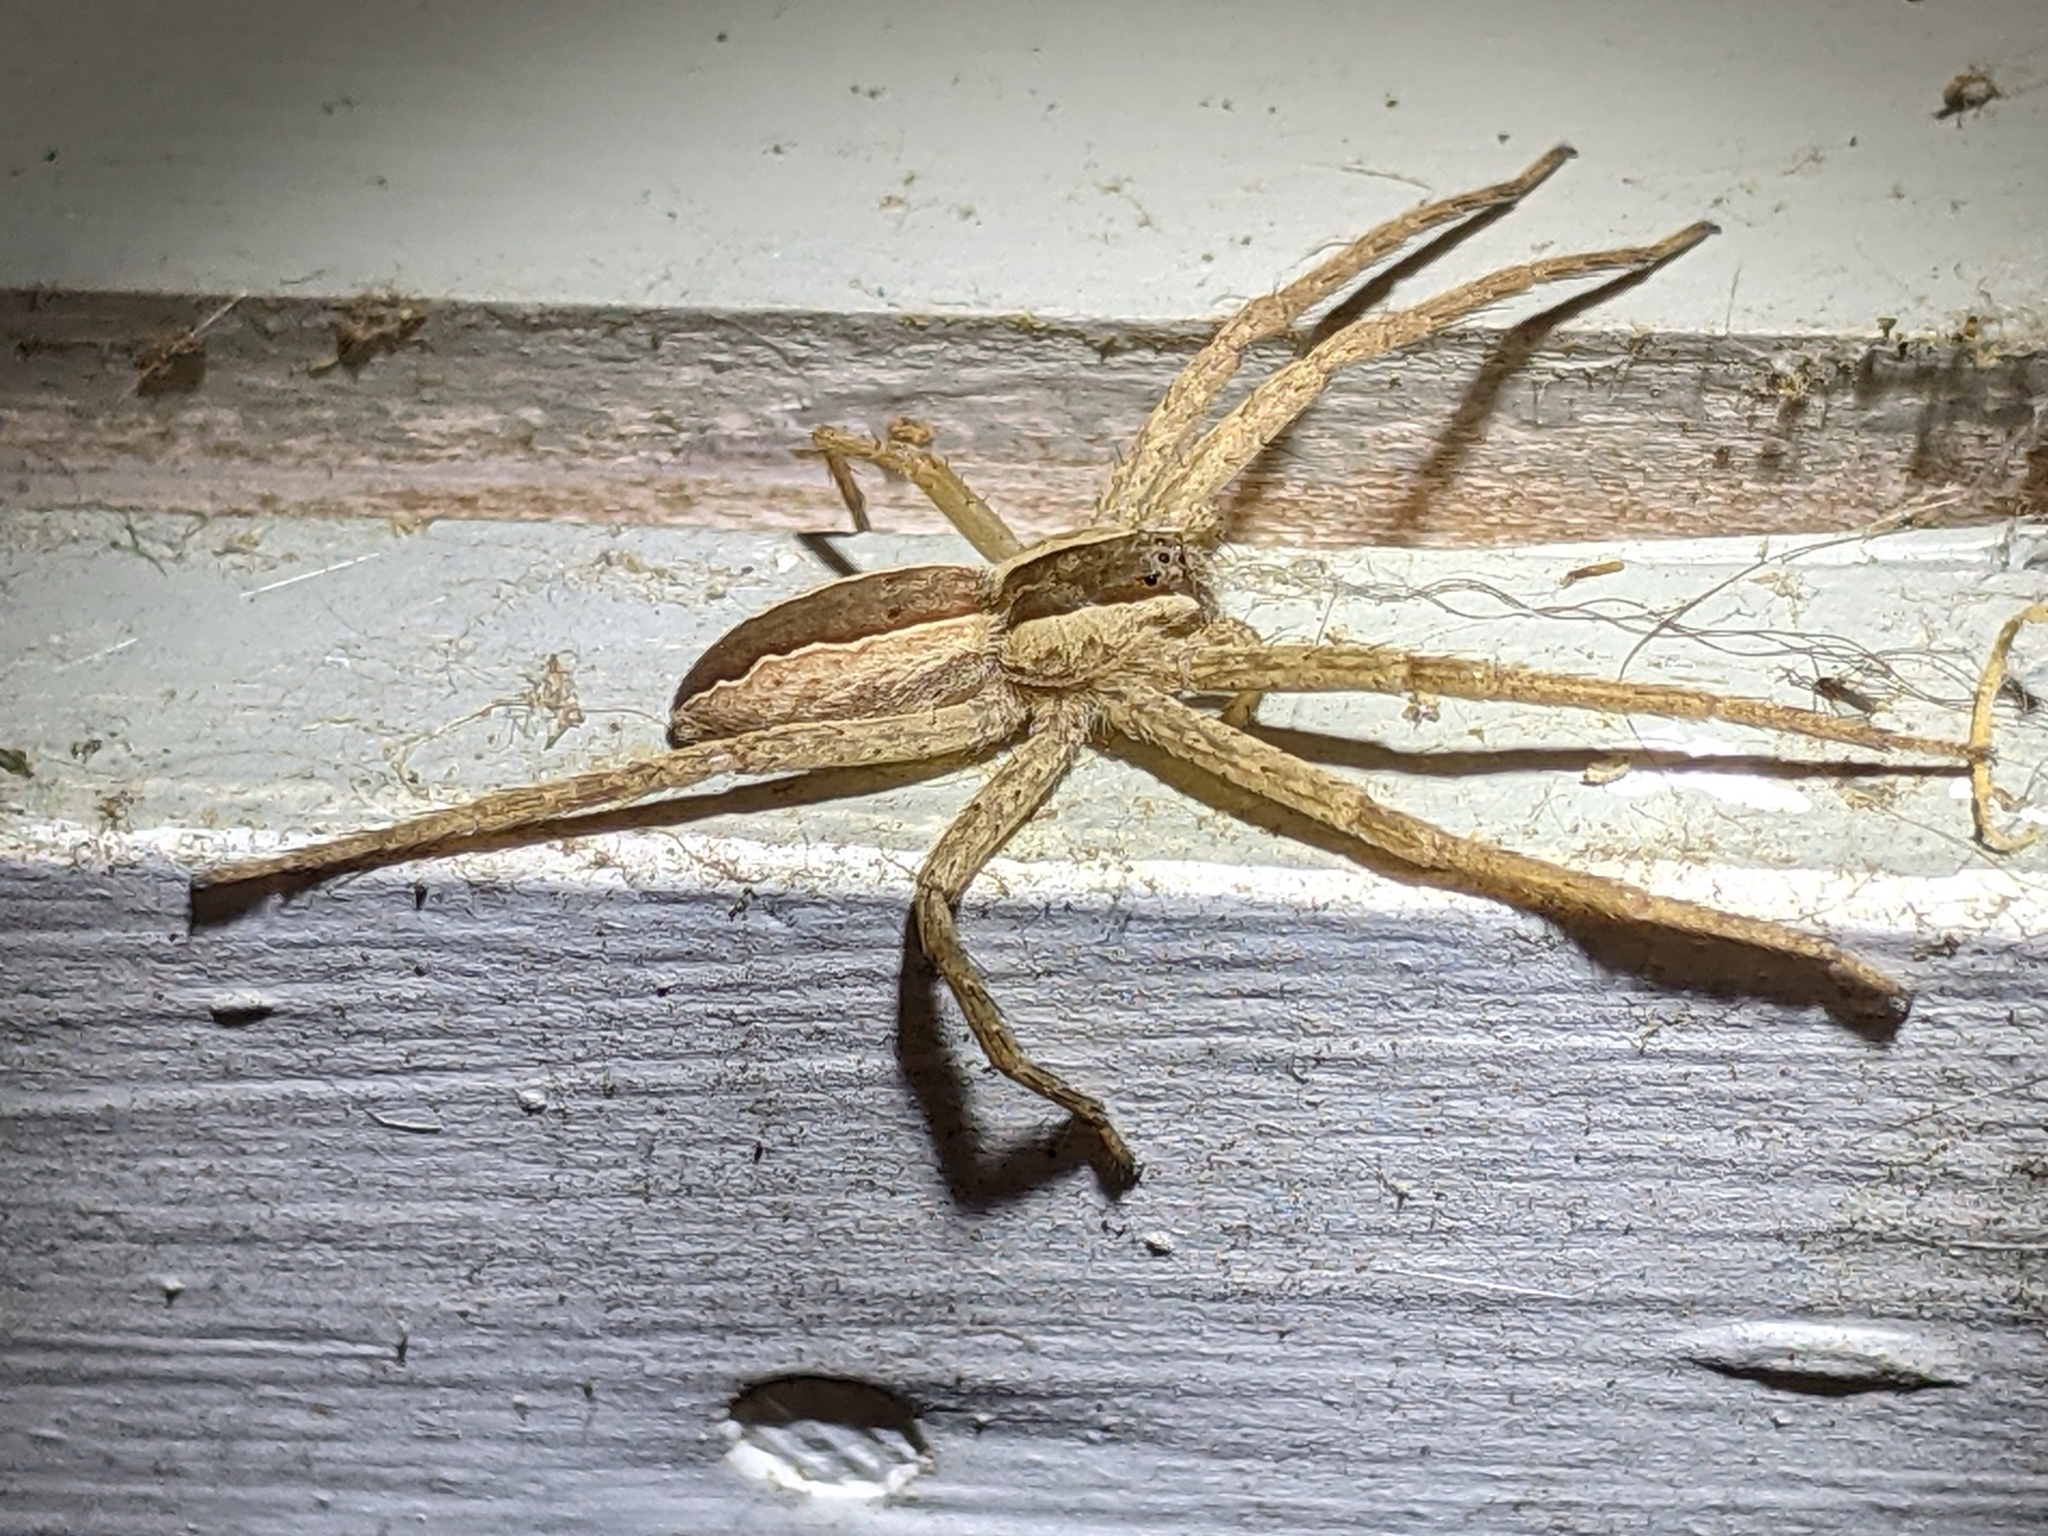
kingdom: Animalia
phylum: Arthropoda
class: Arachnida
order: Araneae
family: Pisauridae
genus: Pisaurina
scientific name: Pisaurina mira
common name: American nursery web spider
